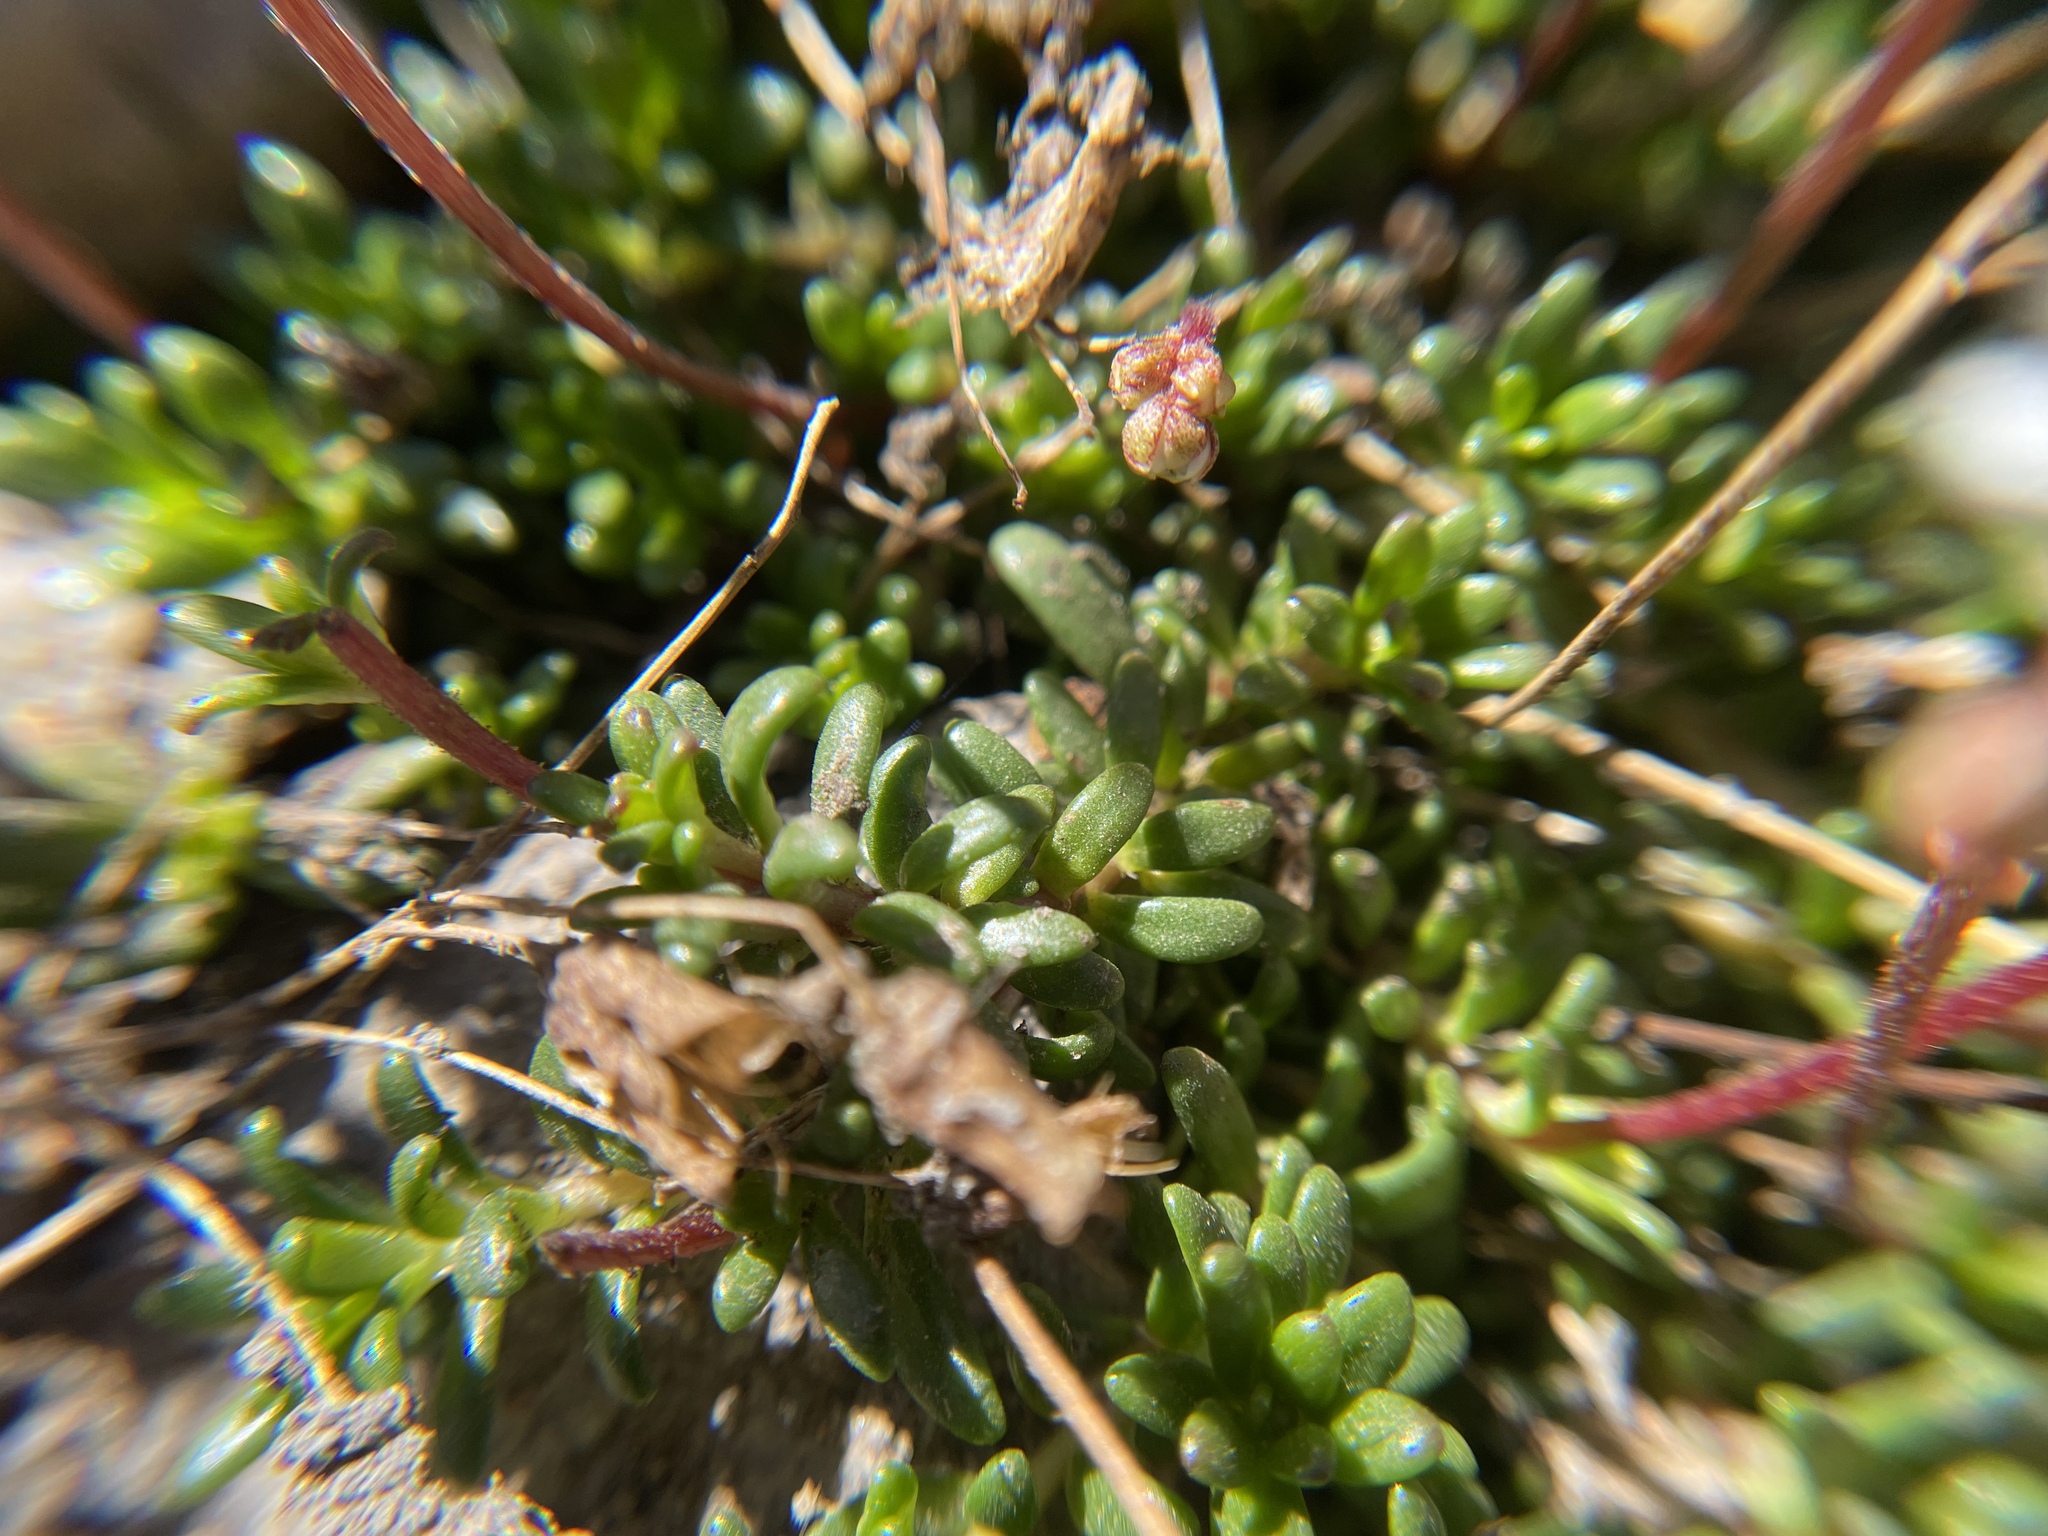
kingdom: Plantae
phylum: Tracheophyta
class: Magnoliopsida
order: Saxifragales
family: Saxifragaceae
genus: Micranthes
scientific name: Micranthes tolmiei
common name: Tolmie's saxifrage
